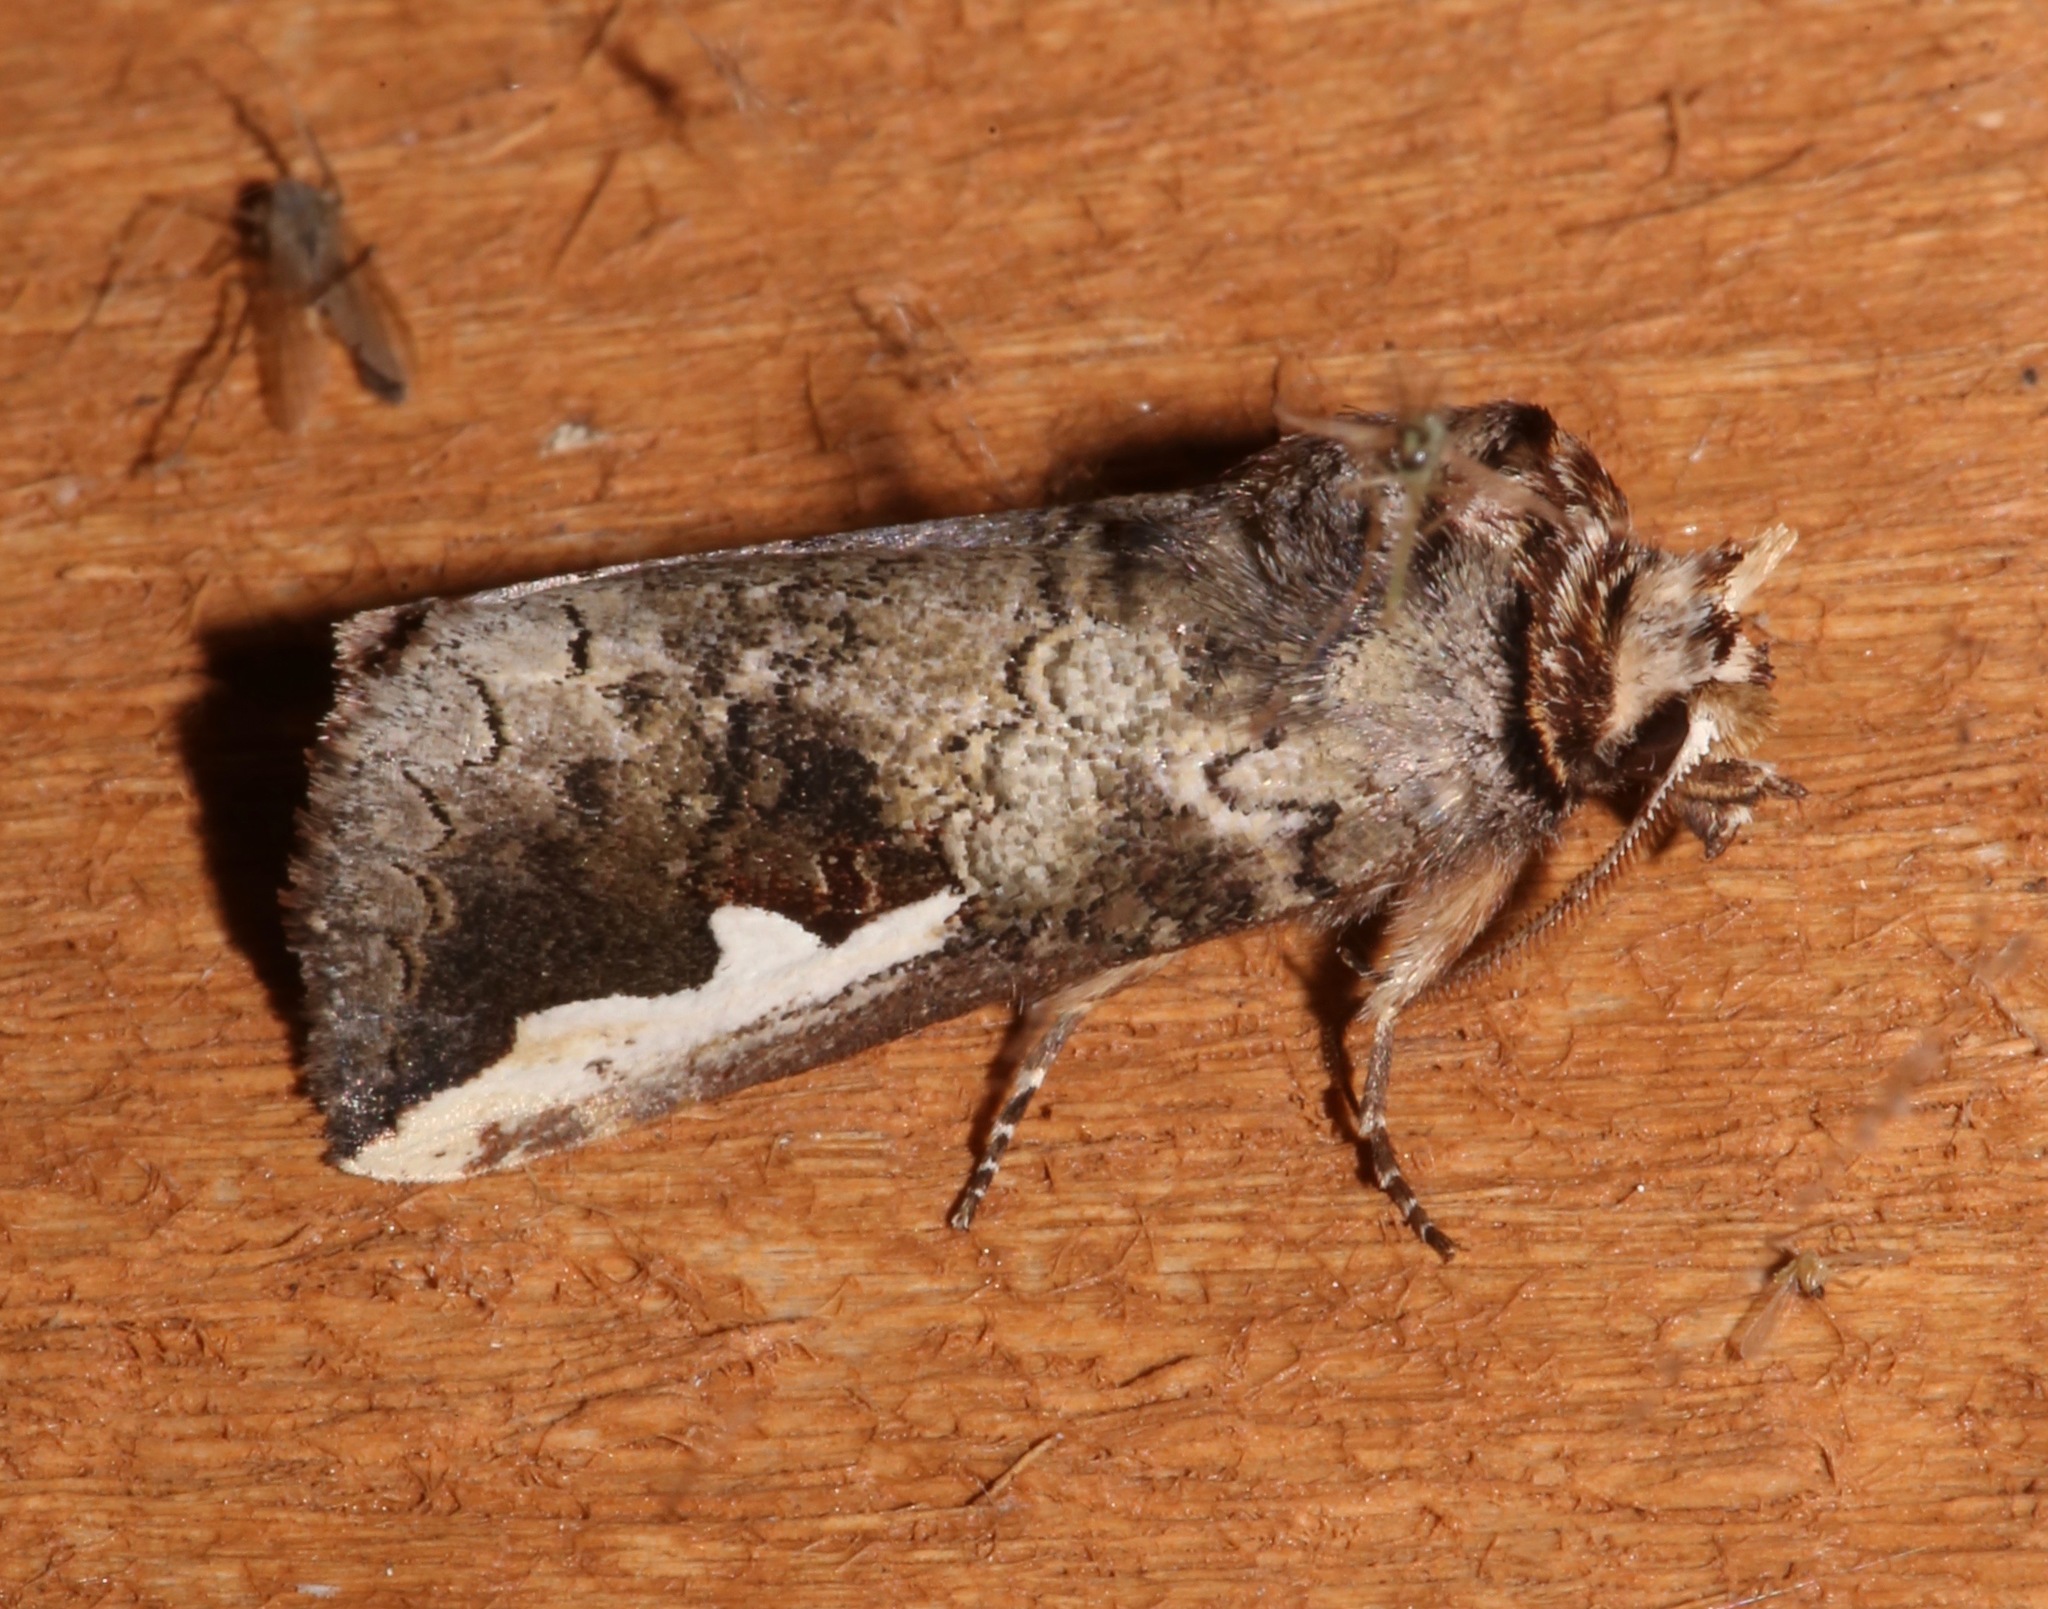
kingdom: Animalia
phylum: Arthropoda
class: Insecta
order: Lepidoptera
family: Notodontidae
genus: Symmerista
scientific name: Symmerista albifrons
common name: White-headed prominent
